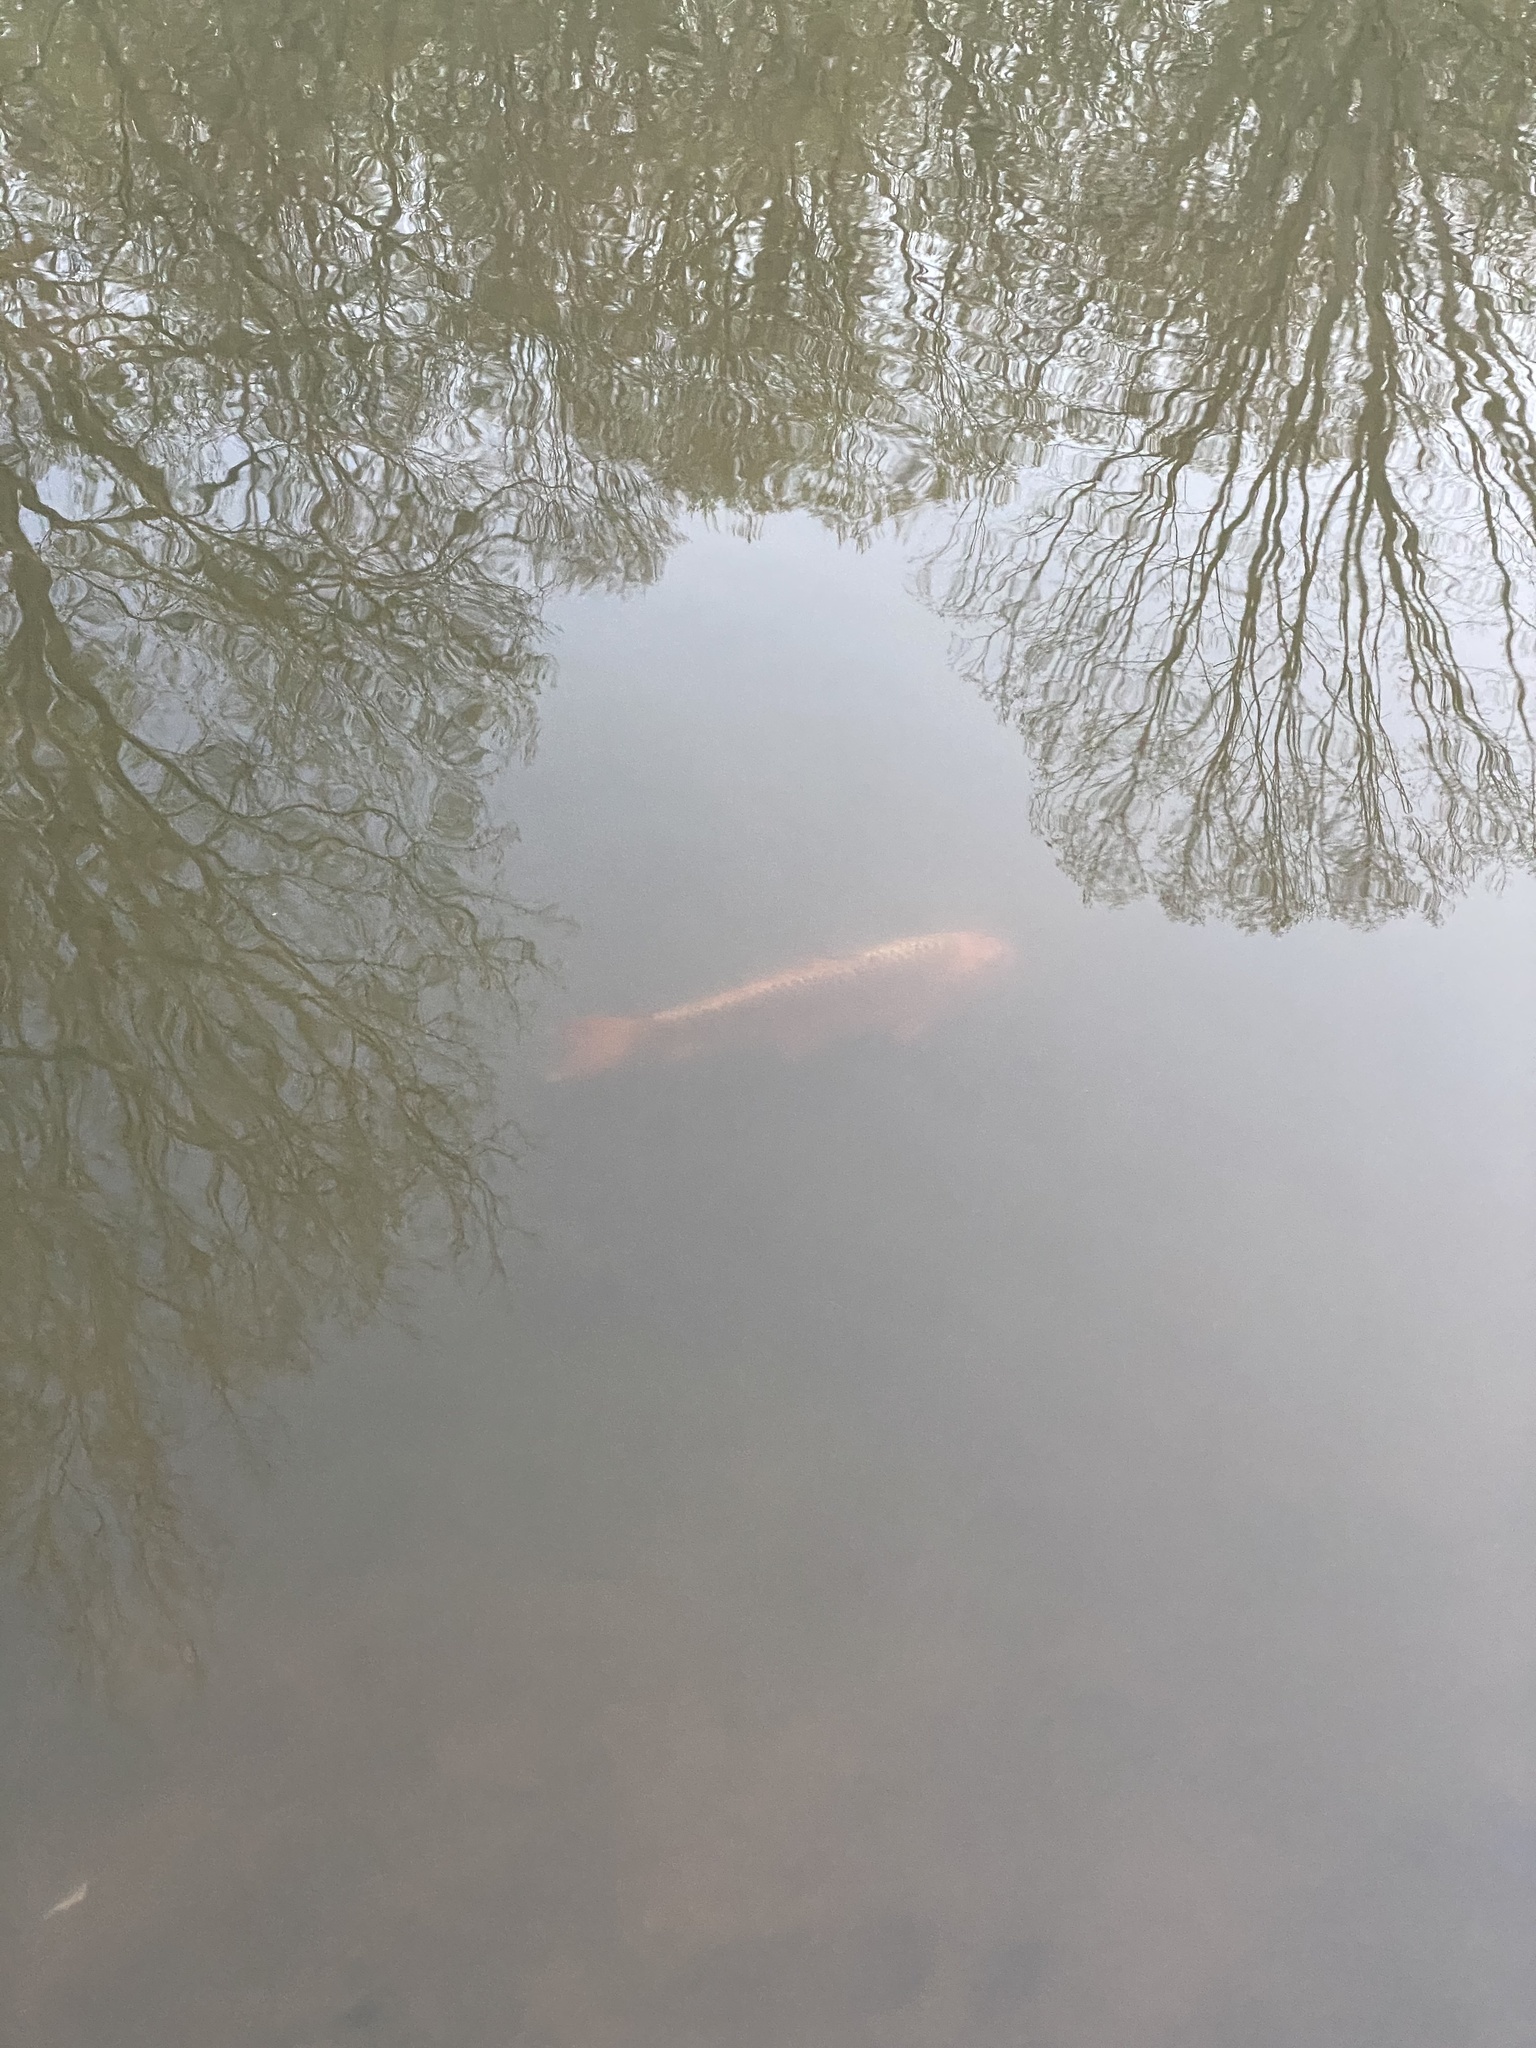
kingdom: Animalia
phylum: Chordata
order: Cypriniformes
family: Cyprinidae
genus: Cyprinus
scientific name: Cyprinus rubrofuscus
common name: Koi
